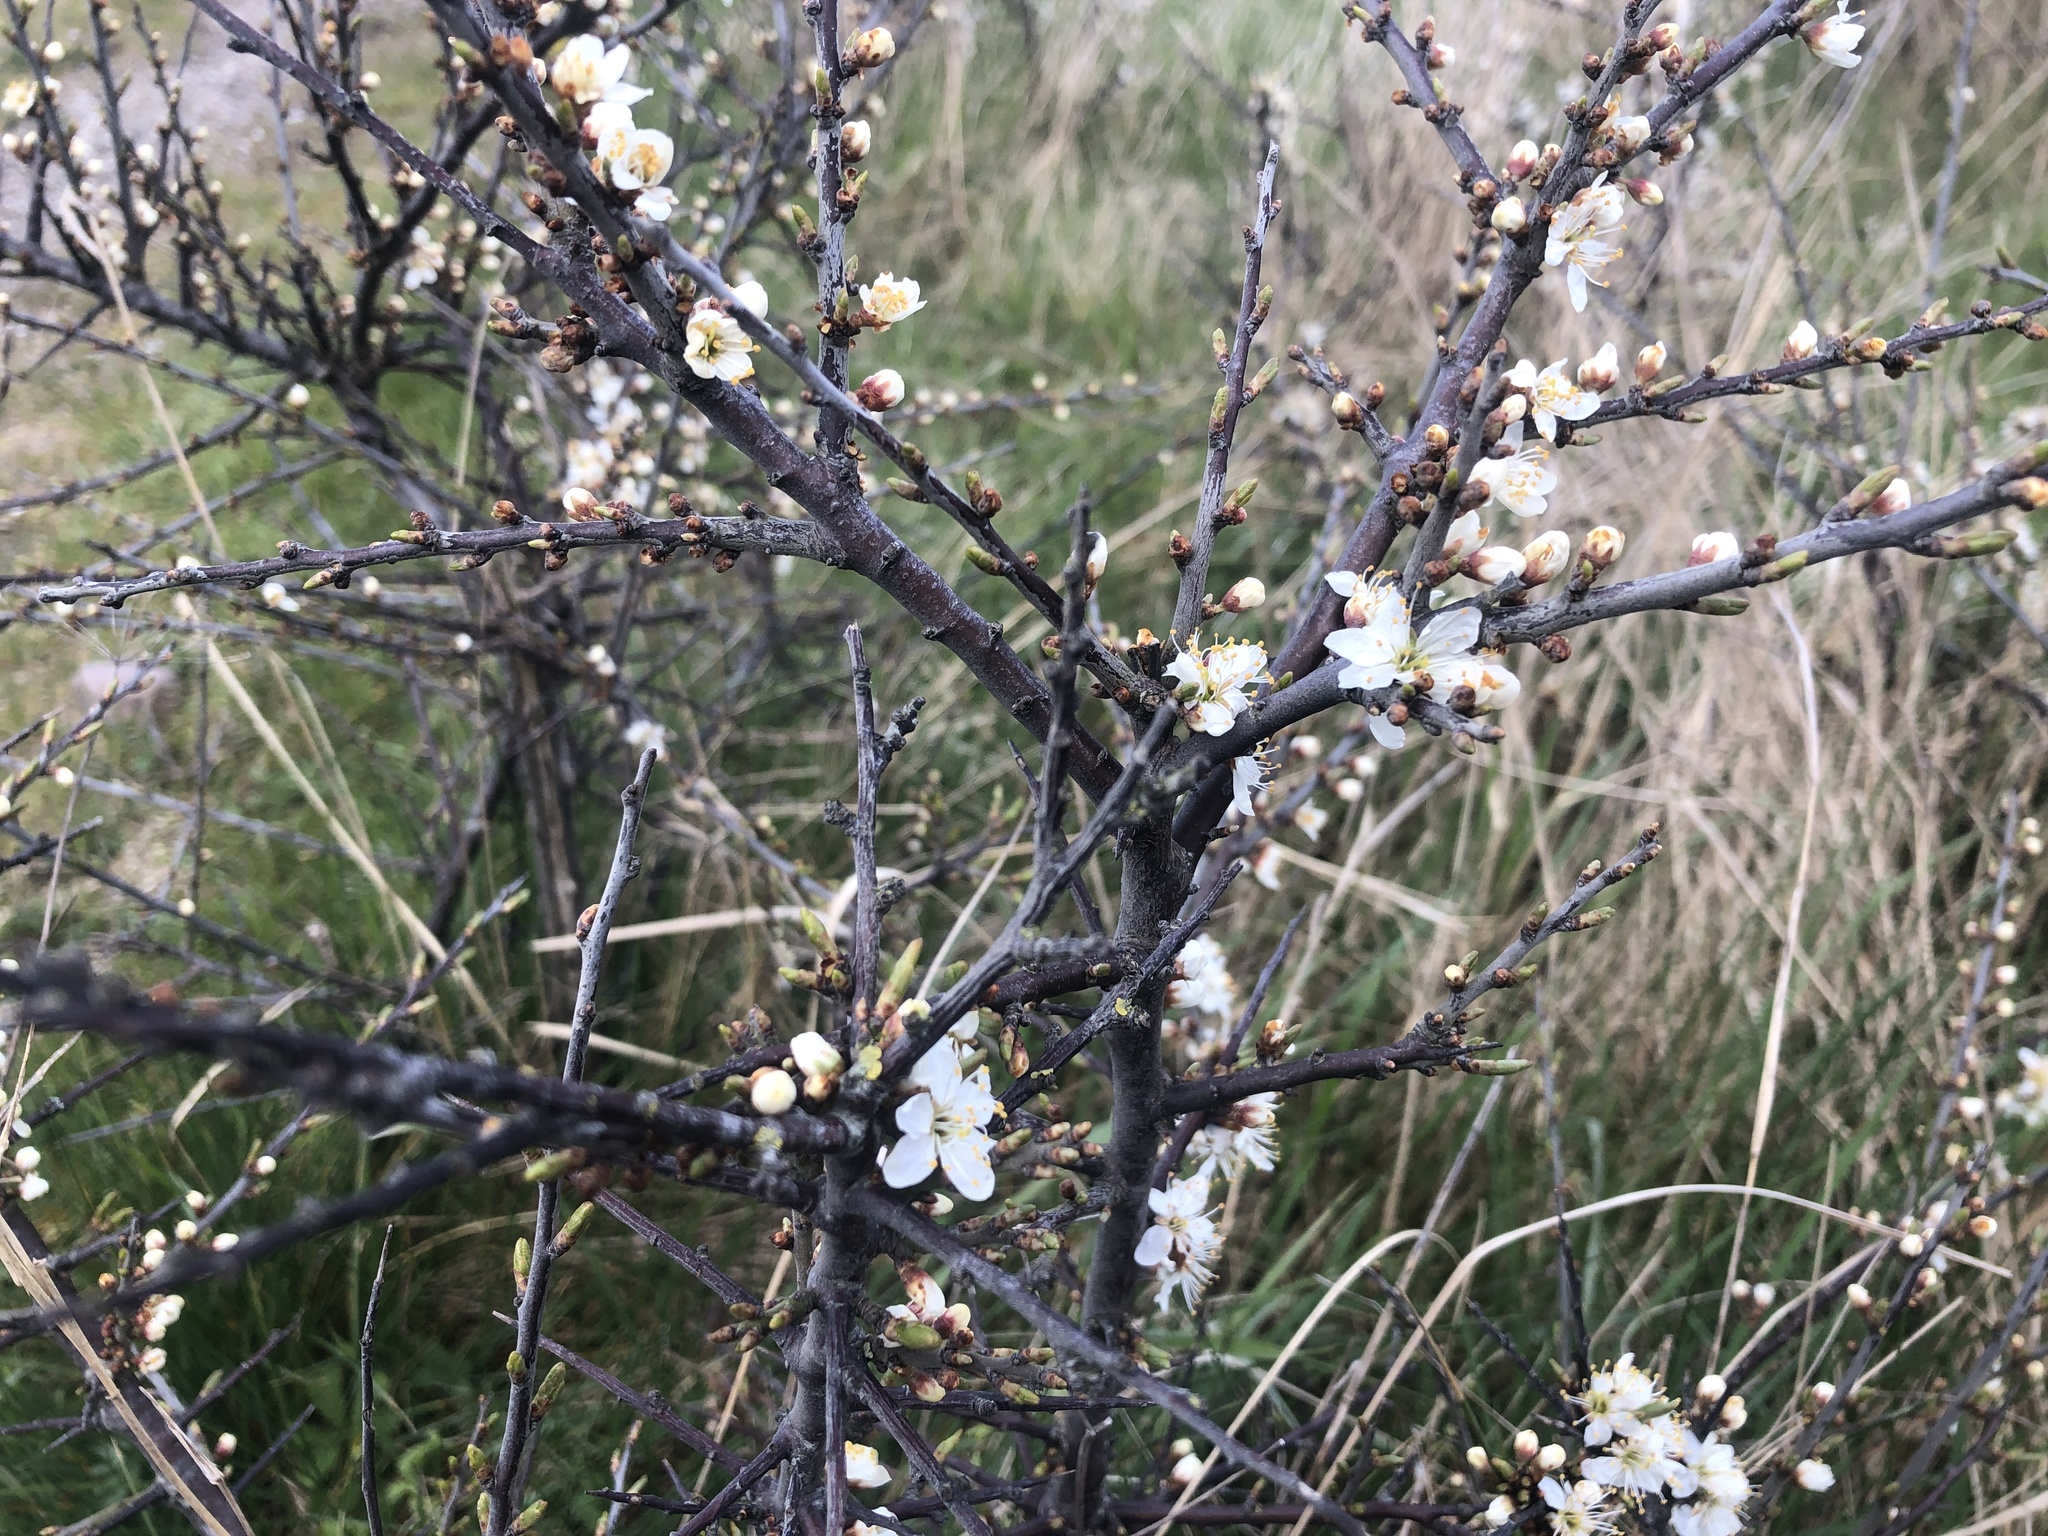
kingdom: Plantae
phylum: Tracheophyta
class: Magnoliopsida
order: Rosales
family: Rosaceae
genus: Prunus
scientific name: Prunus spinosa
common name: Blackthorn
